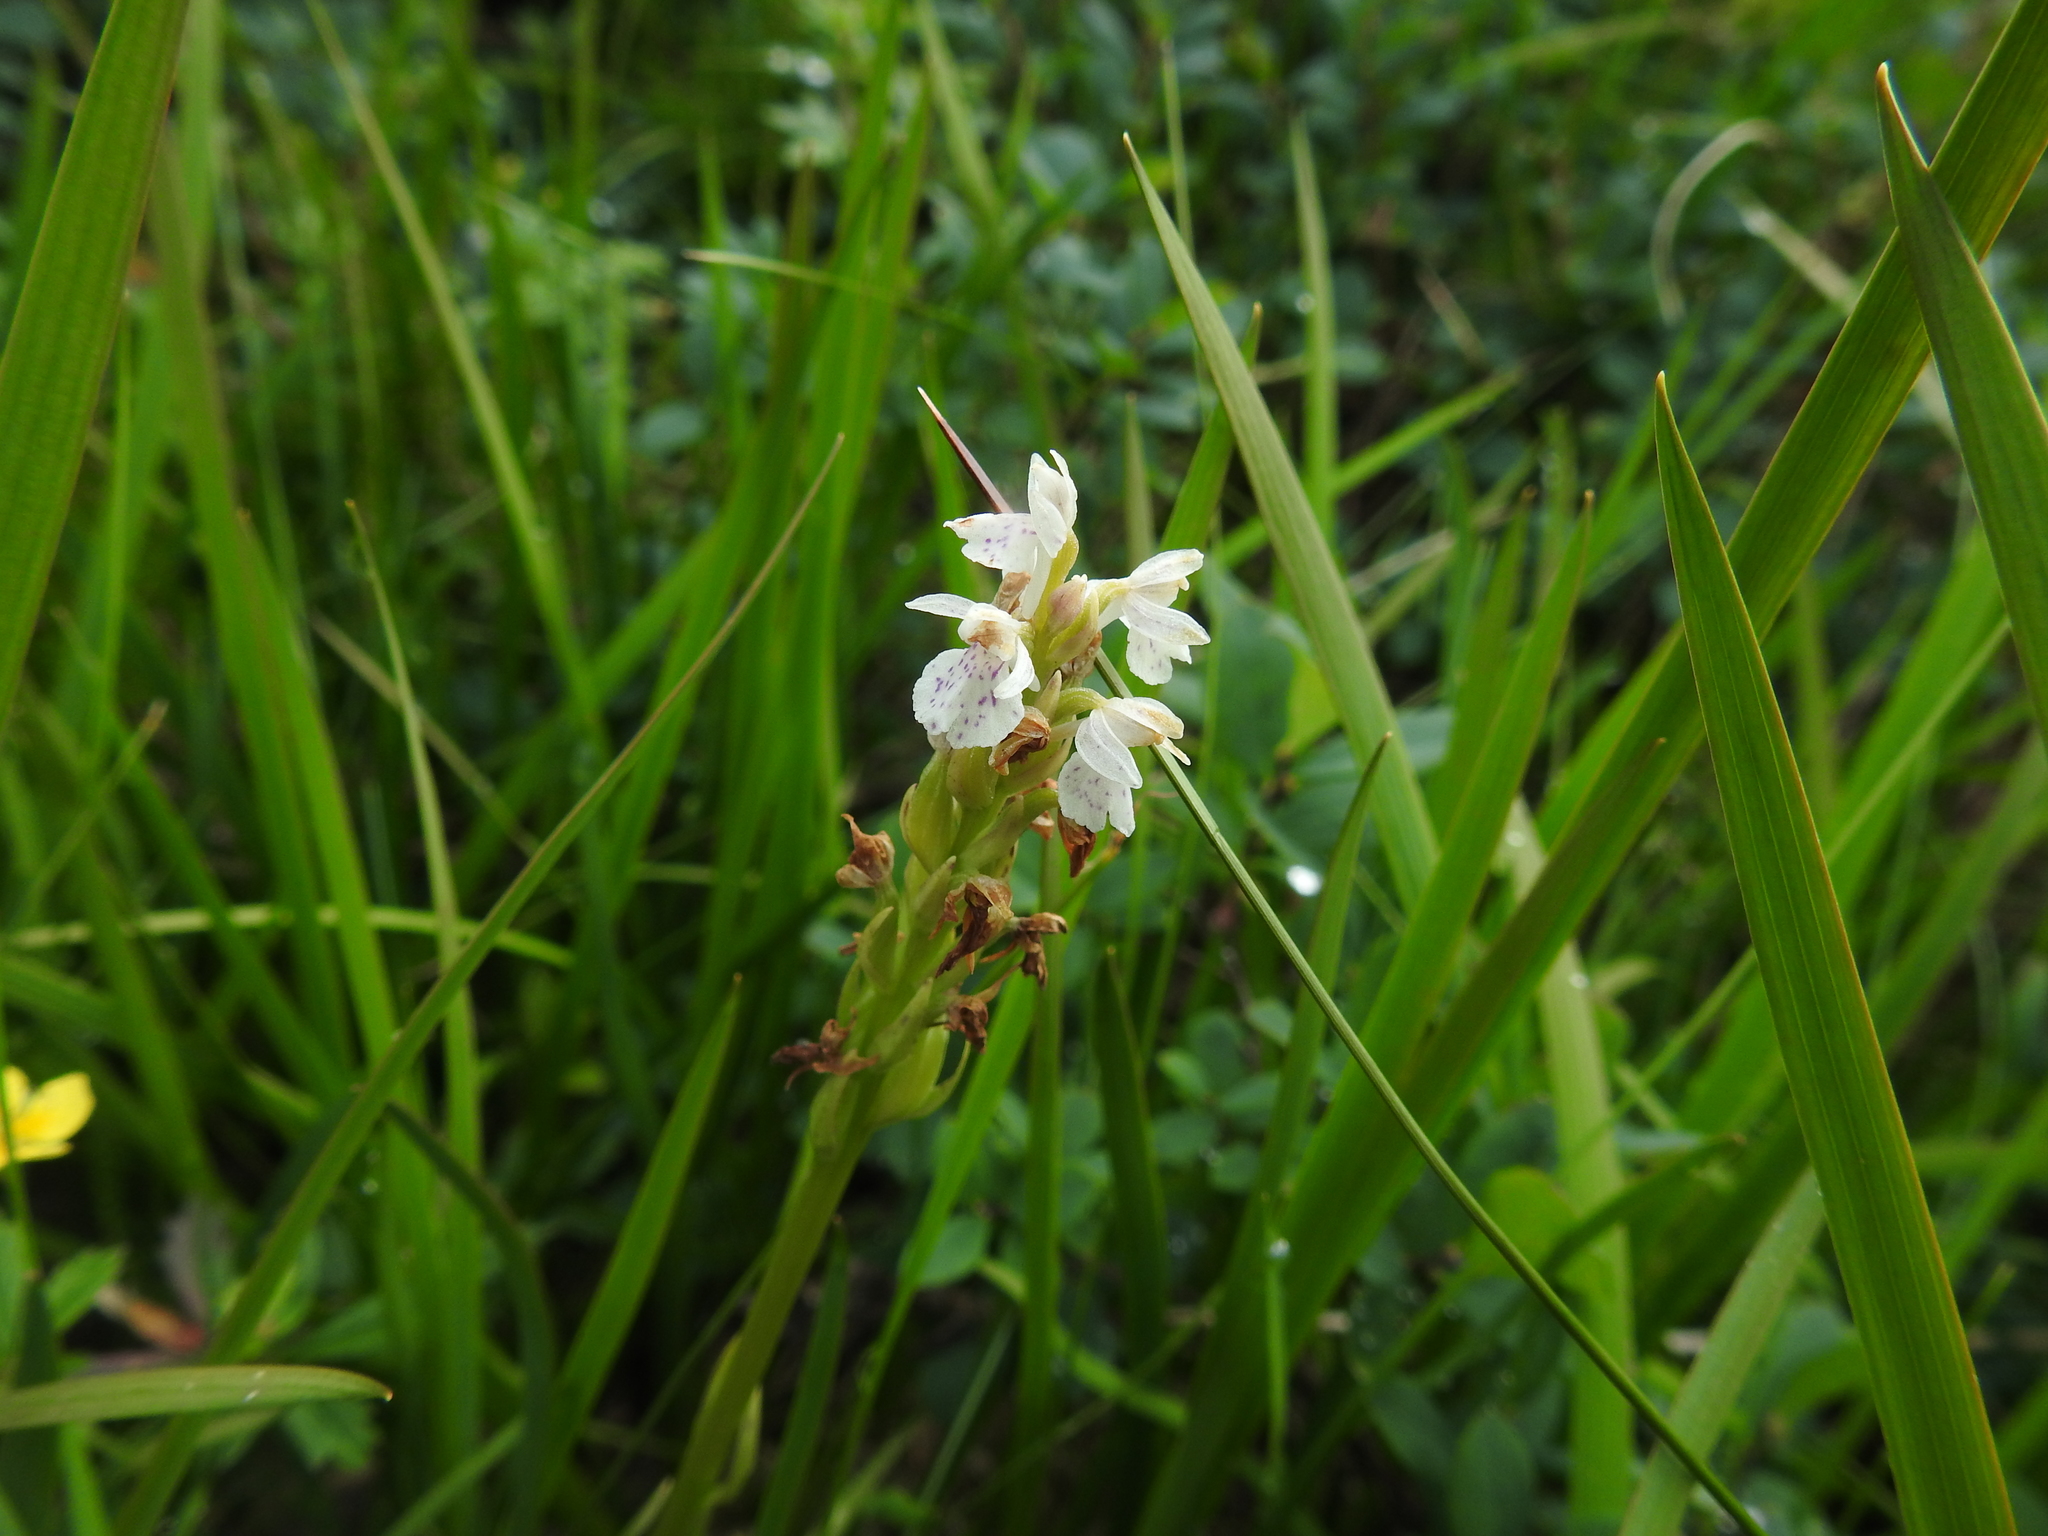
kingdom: Plantae
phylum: Tracheophyta
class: Liliopsida
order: Asparagales
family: Orchidaceae
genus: Dactylorhiza
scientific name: Dactylorhiza maculata
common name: Heath spotted-orchid
